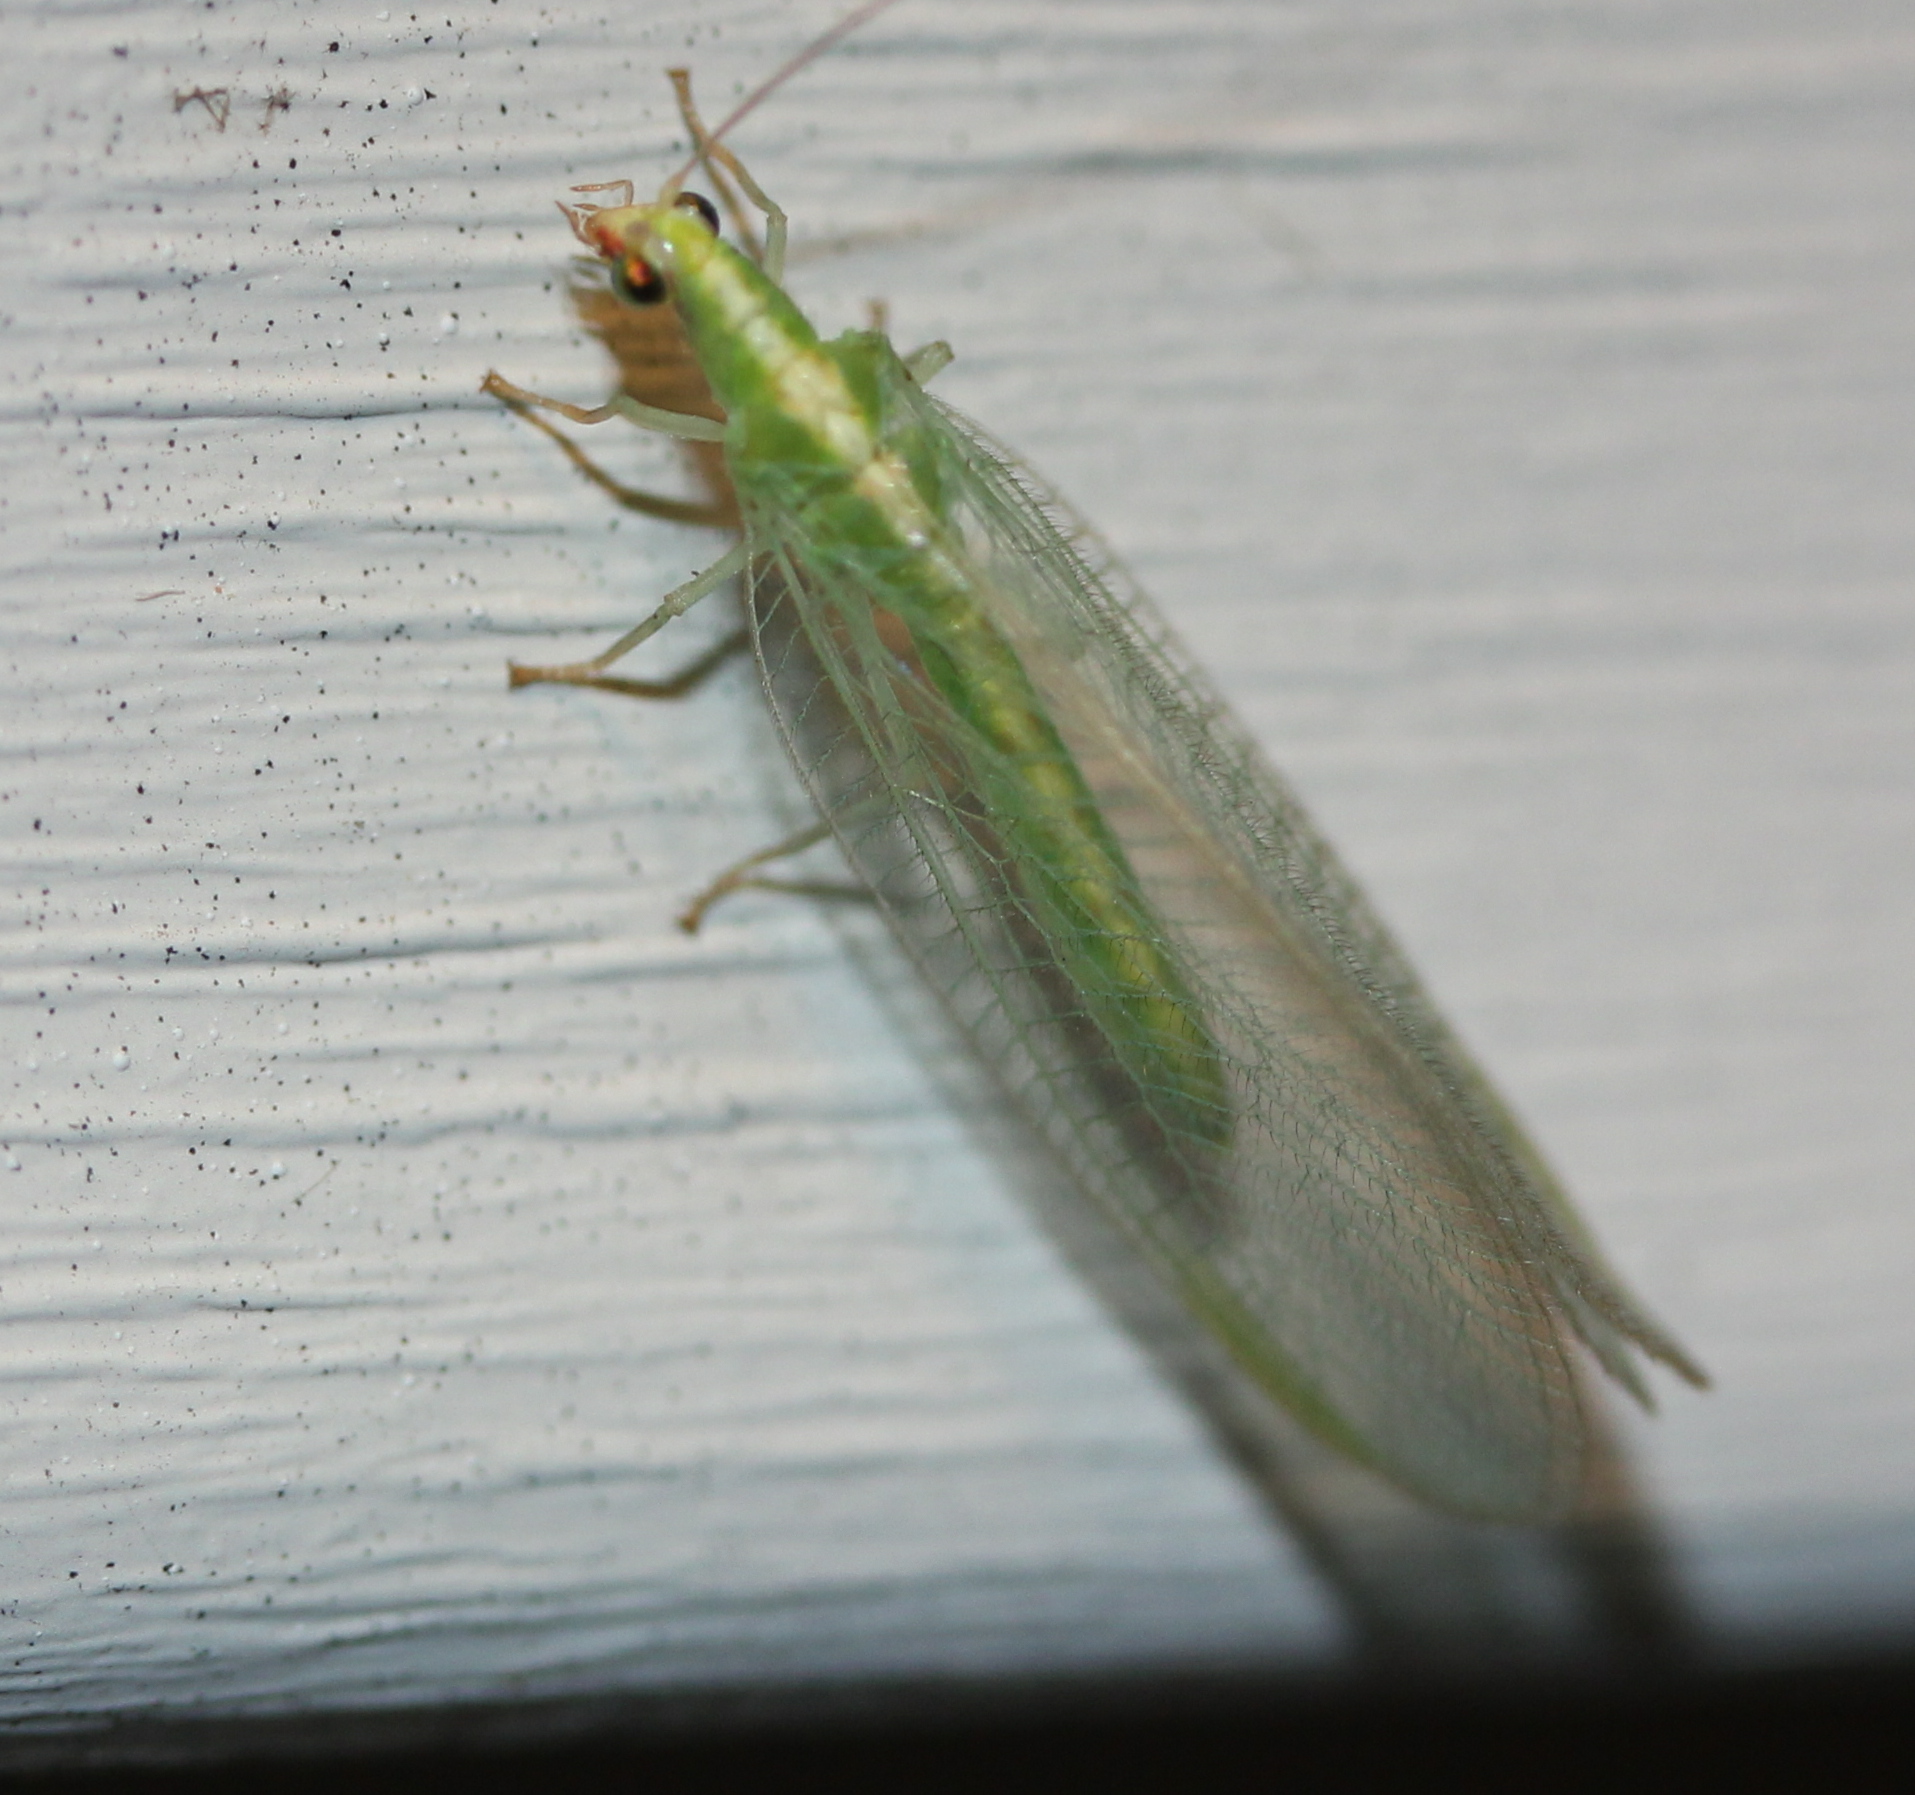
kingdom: Animalia
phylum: Arthropoda
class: Insecta
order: Neuroptera
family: Chrysopidae
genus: Chrysoperla
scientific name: Chrysoperla rufilabris
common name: Red-lipped green lacewing
